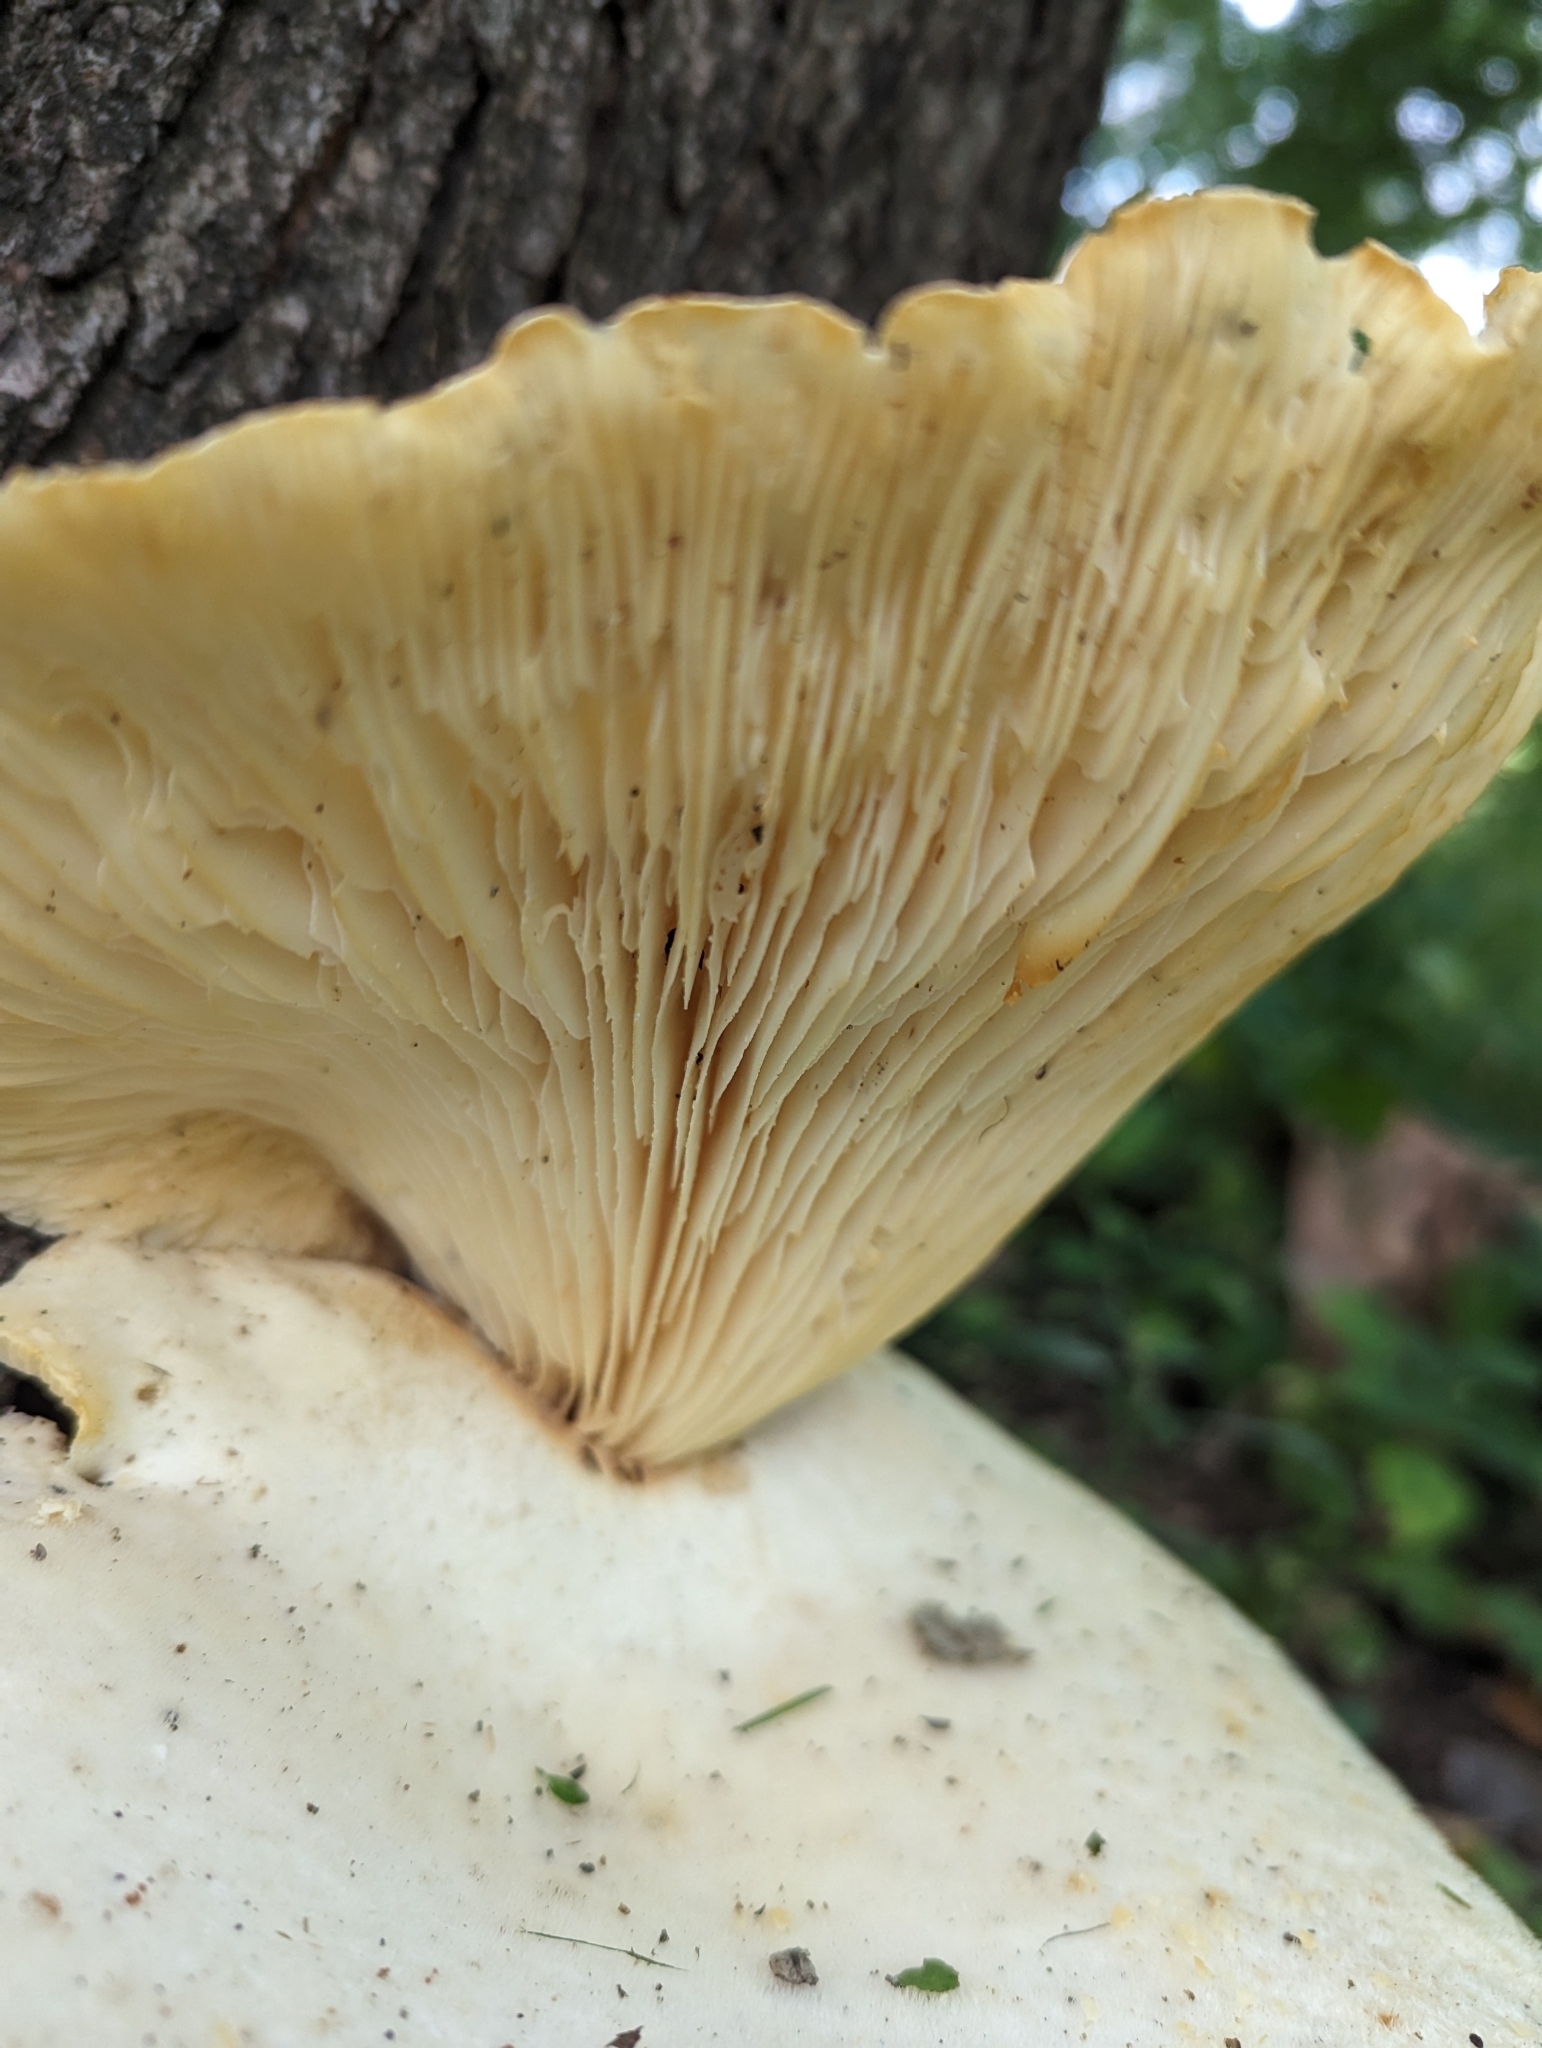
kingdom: Fungi
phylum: Basidiomycota
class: Agaricomycetes
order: Polyporales
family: Polyporaceae
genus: Lentinus
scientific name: Lentinus levis
